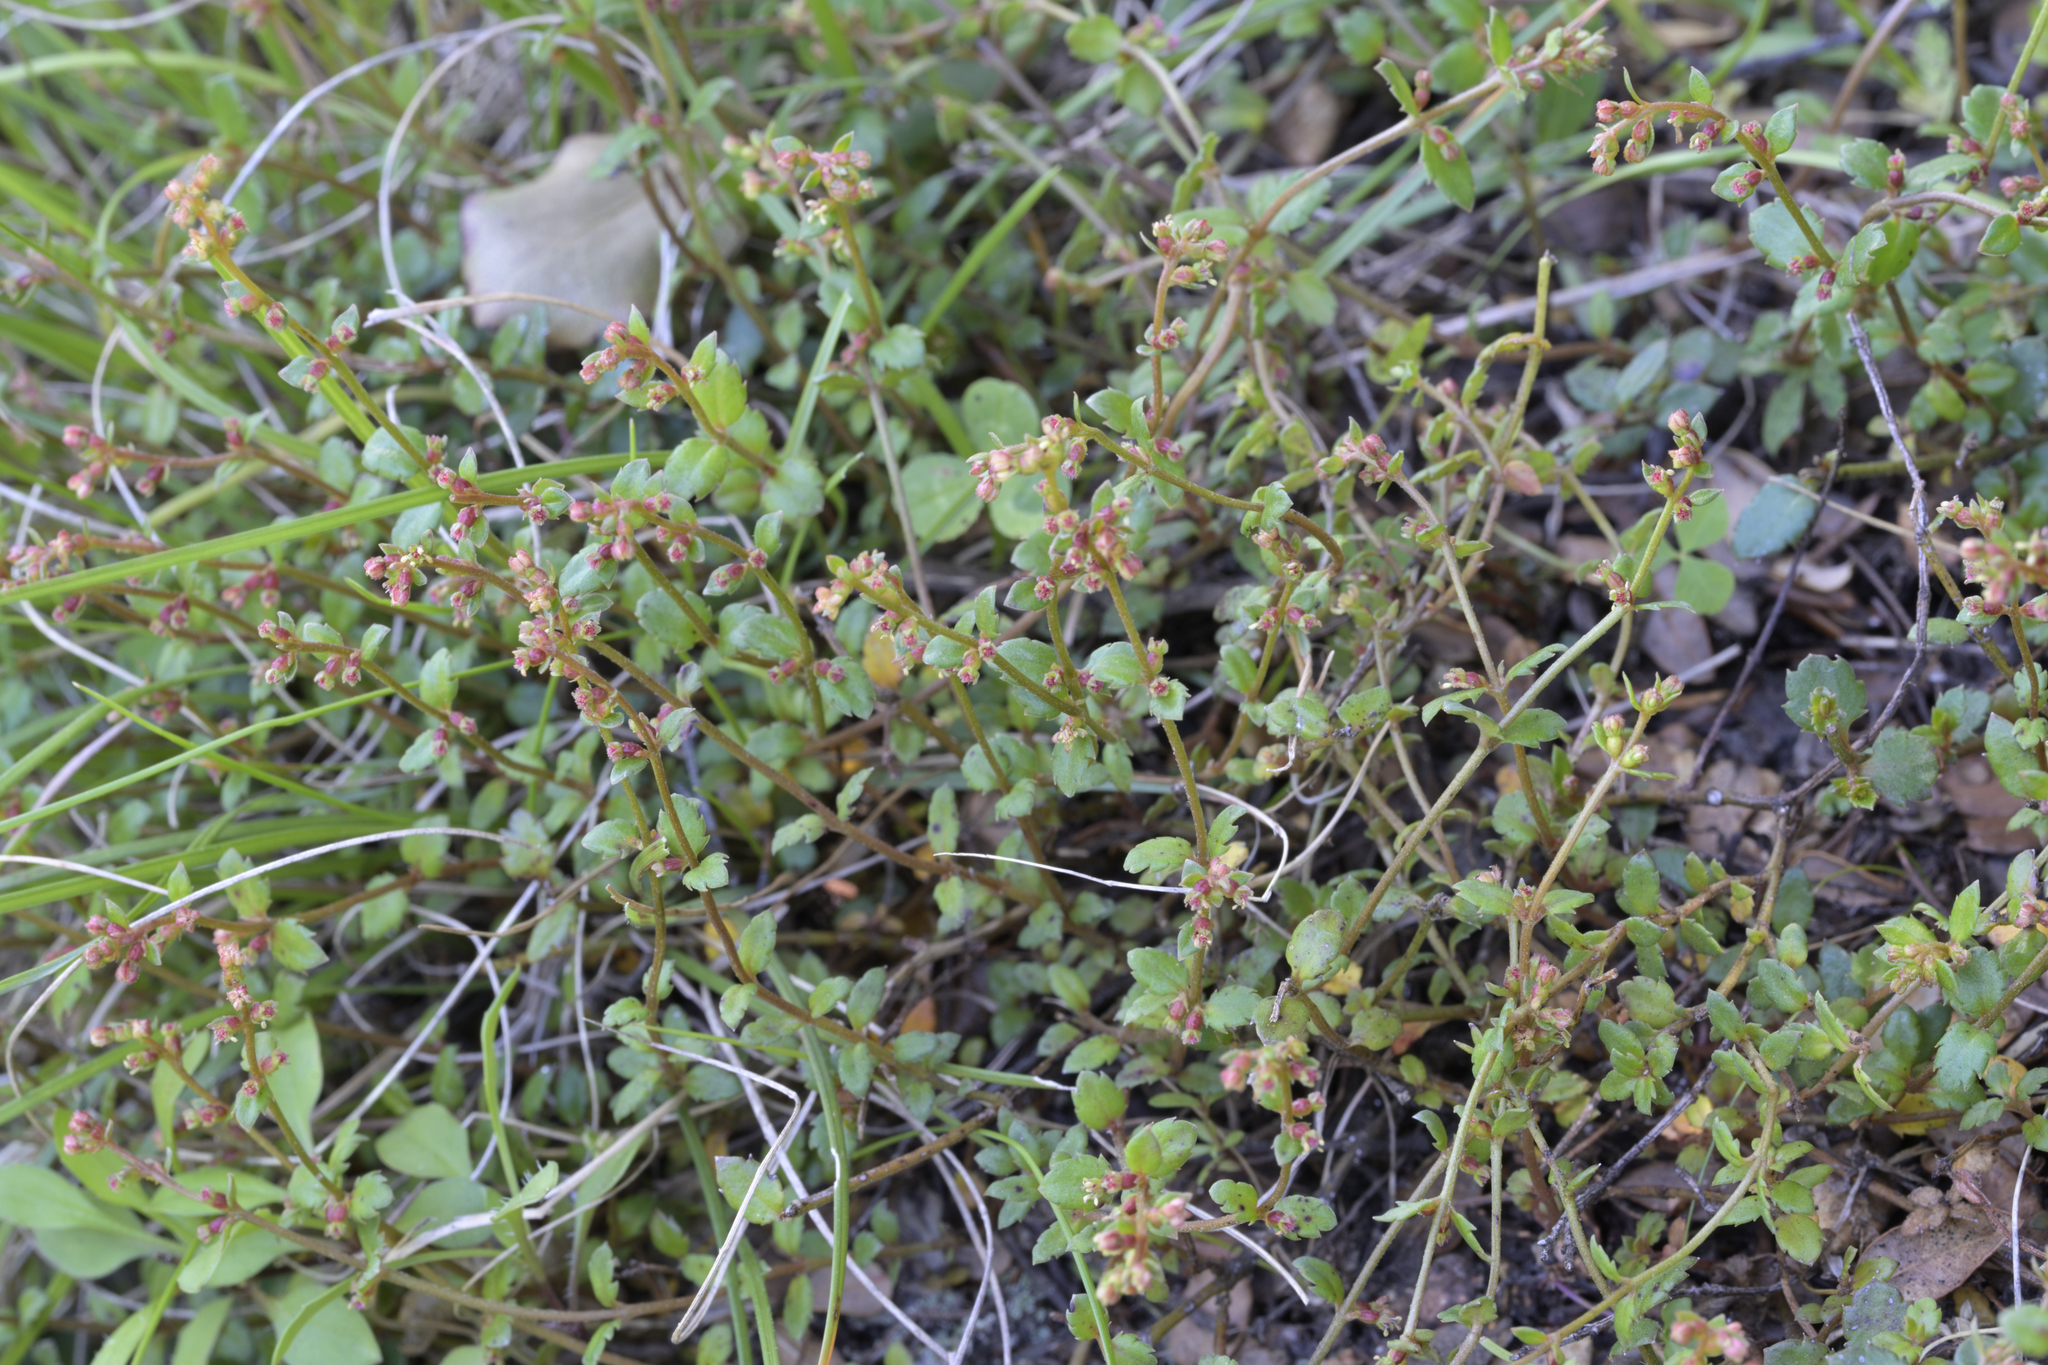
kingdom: Plantae
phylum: Tracheophyta
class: Magnoliopsida
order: Saxifragales
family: Haloragaceae
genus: Gonocarpus
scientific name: Gonocarpus micranthus
